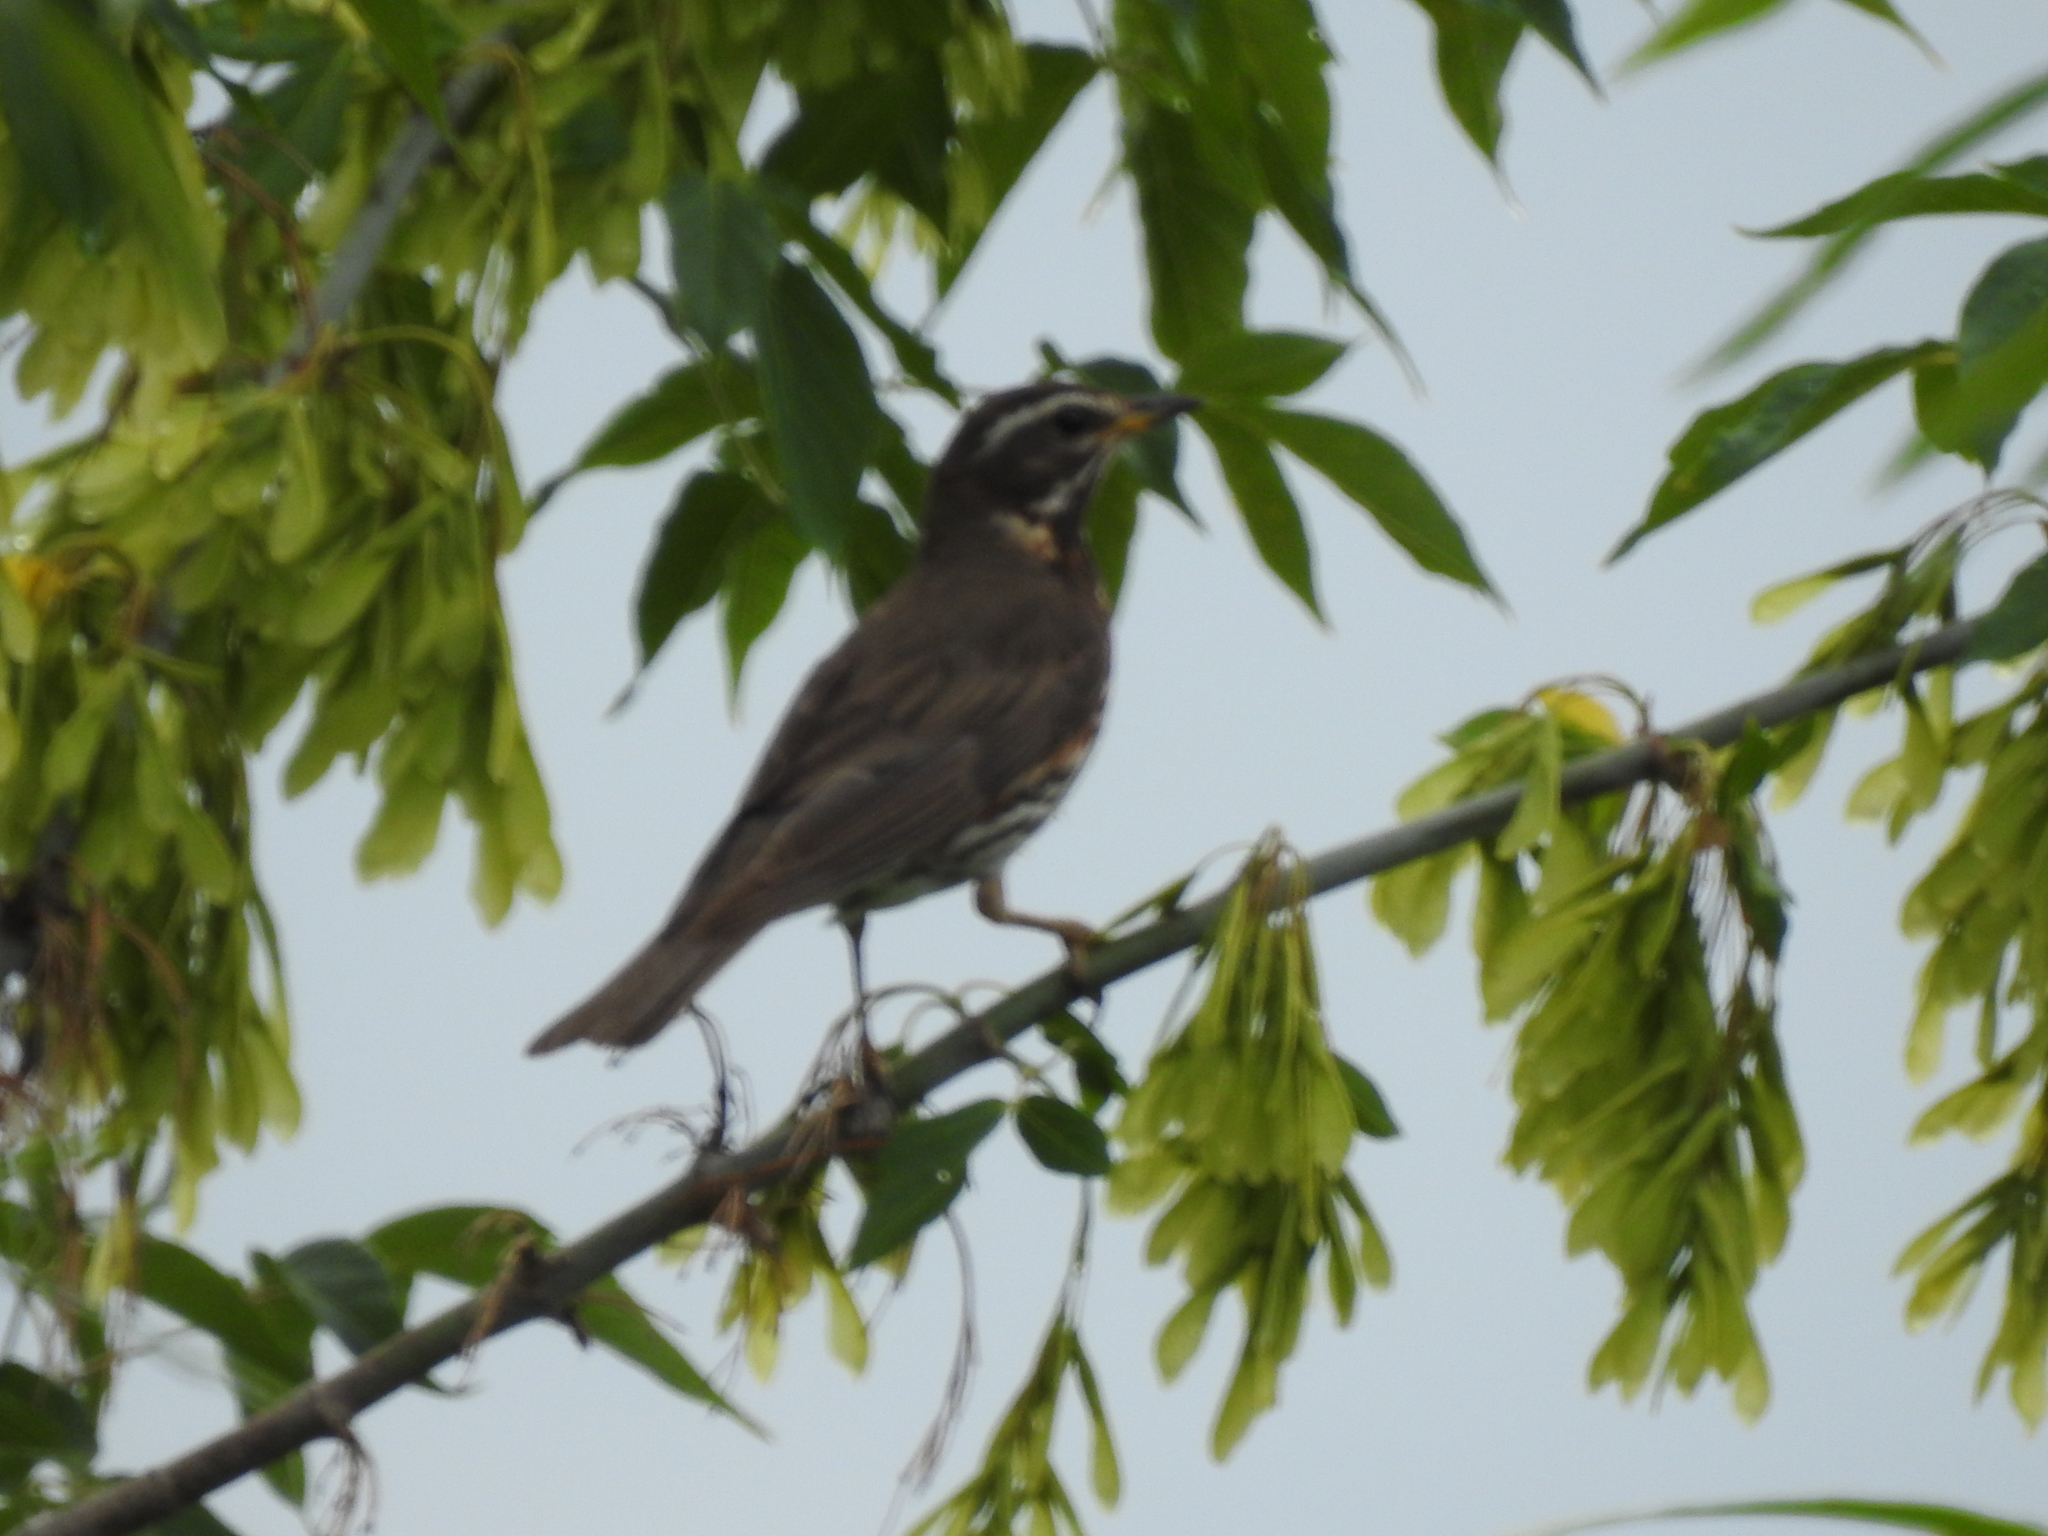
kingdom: Animalia
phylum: Chordata
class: Aves
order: Passeriformes
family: Turdidae
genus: Turdus
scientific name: Turdus iliacus
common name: Redwing
